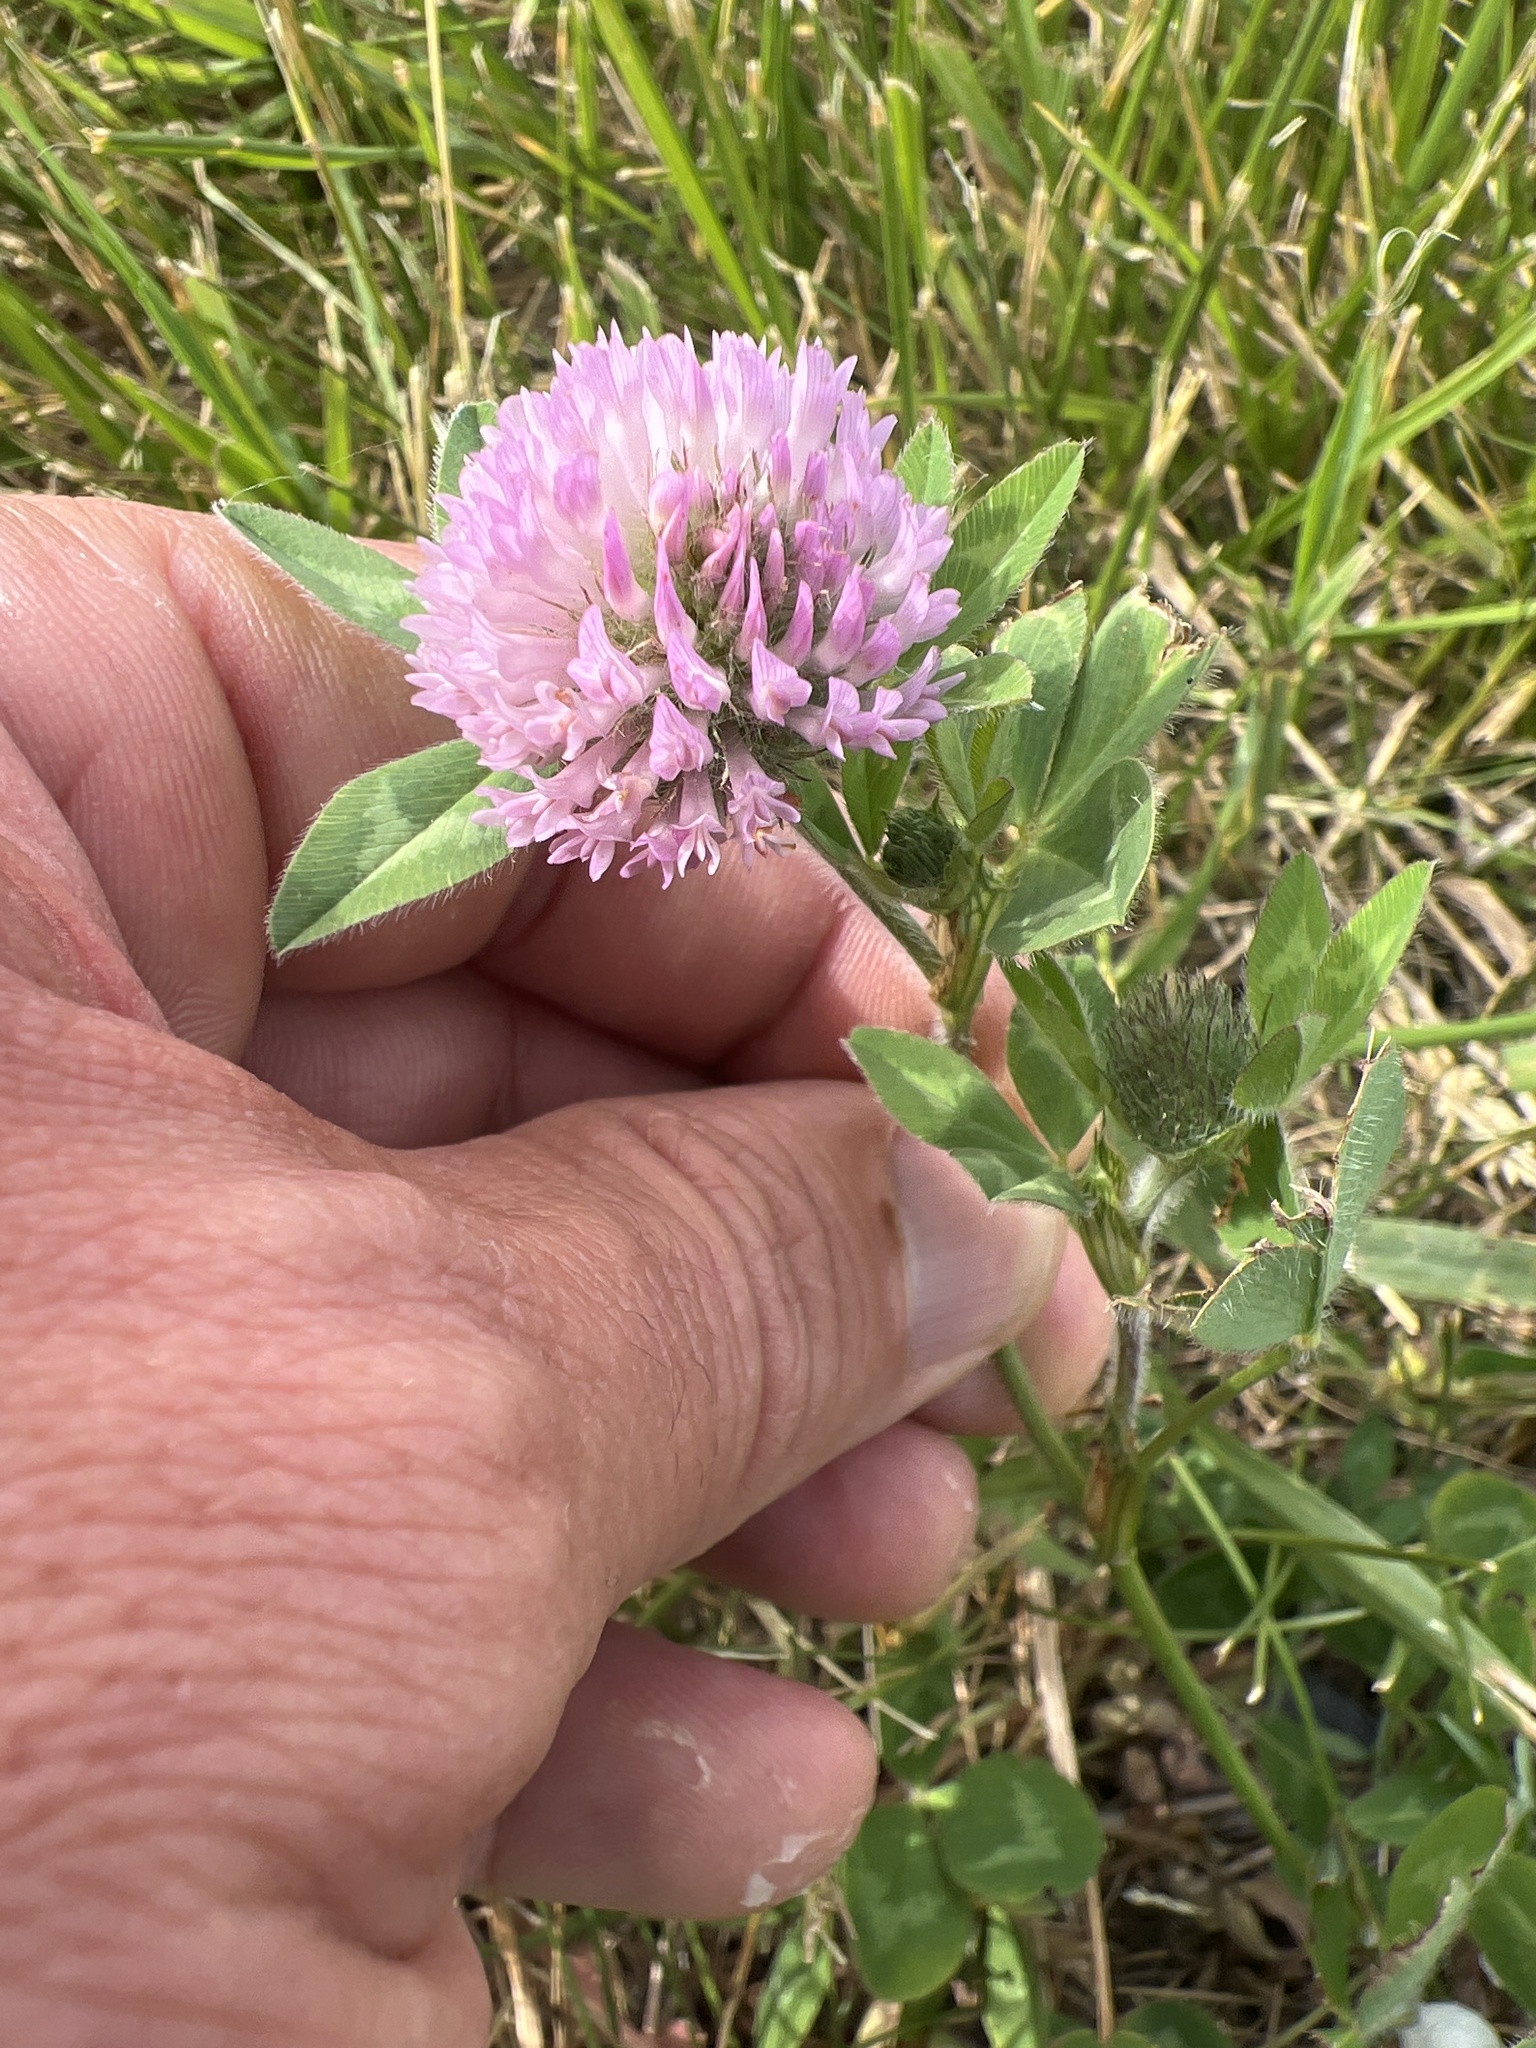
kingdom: Plantae
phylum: Tracheophyta
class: Magnoliopsida
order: Fabales
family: Fabaceae
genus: Trifolium
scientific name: Trifolium pratense
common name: Red clover
